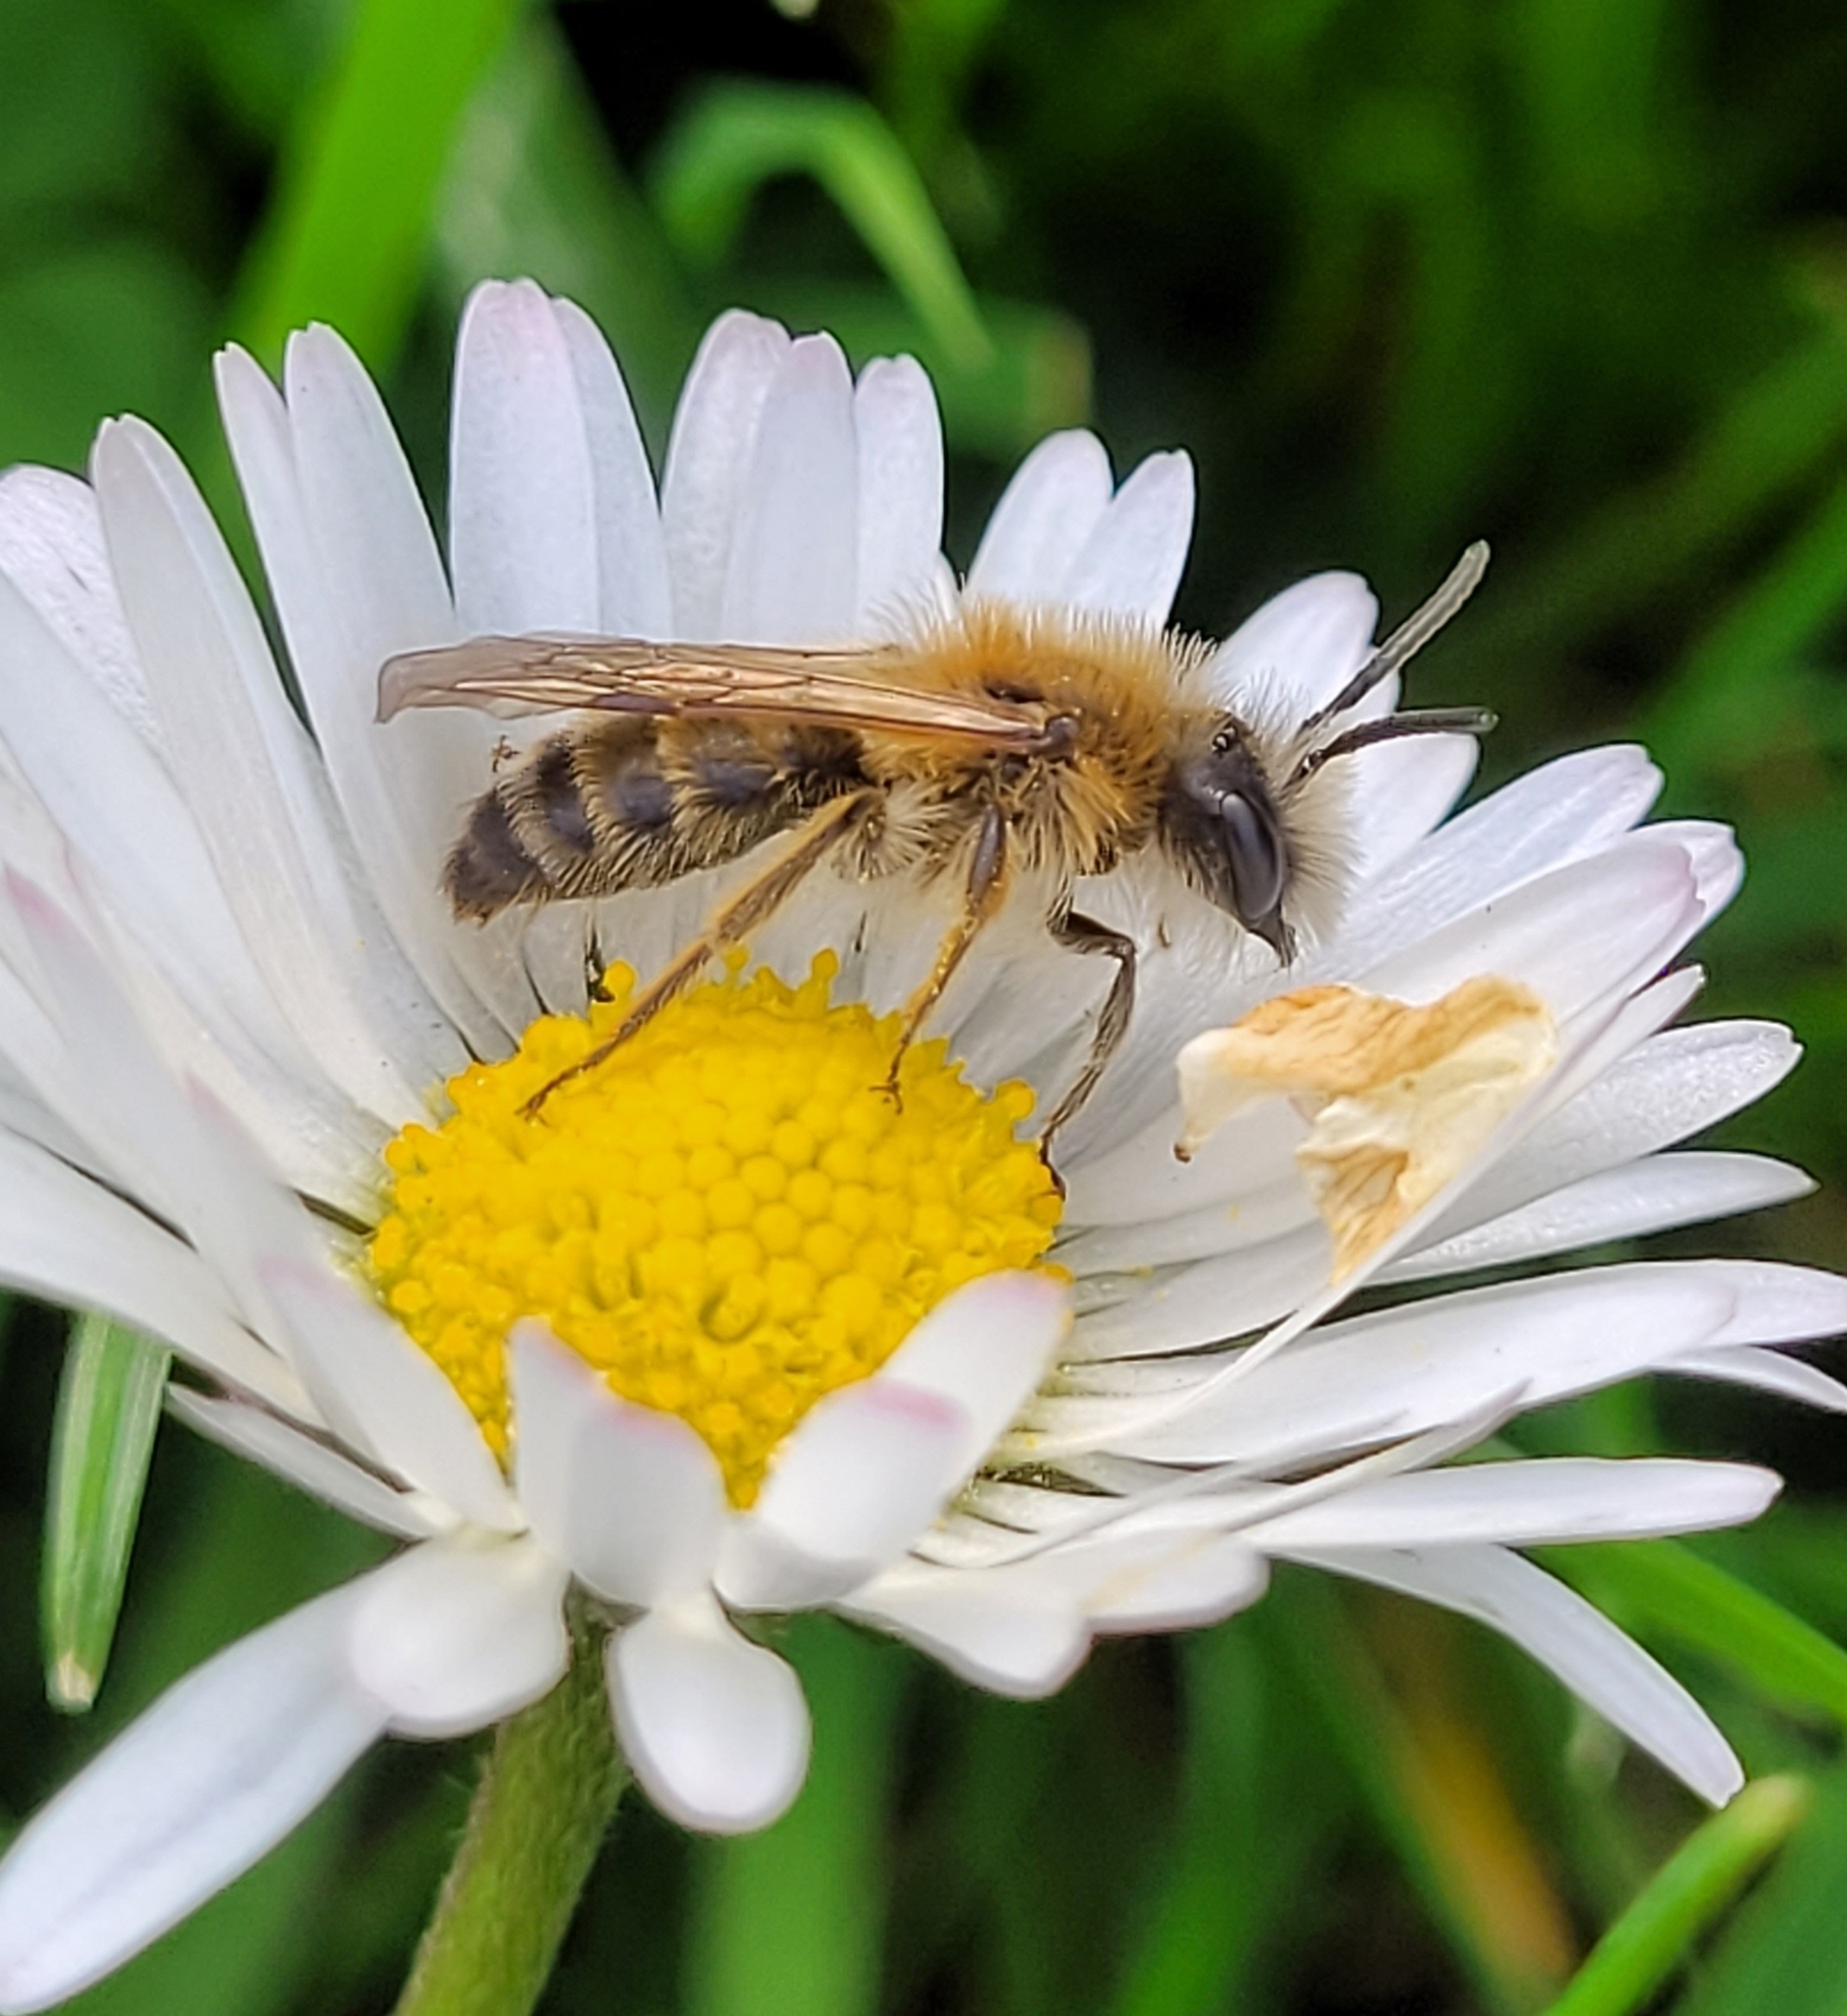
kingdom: Animalia
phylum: Arthropoda
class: Insecta
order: Hymenoptera
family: Andrenidae
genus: Andrena
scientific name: Andrena gravida
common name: White-bellied mining bee
